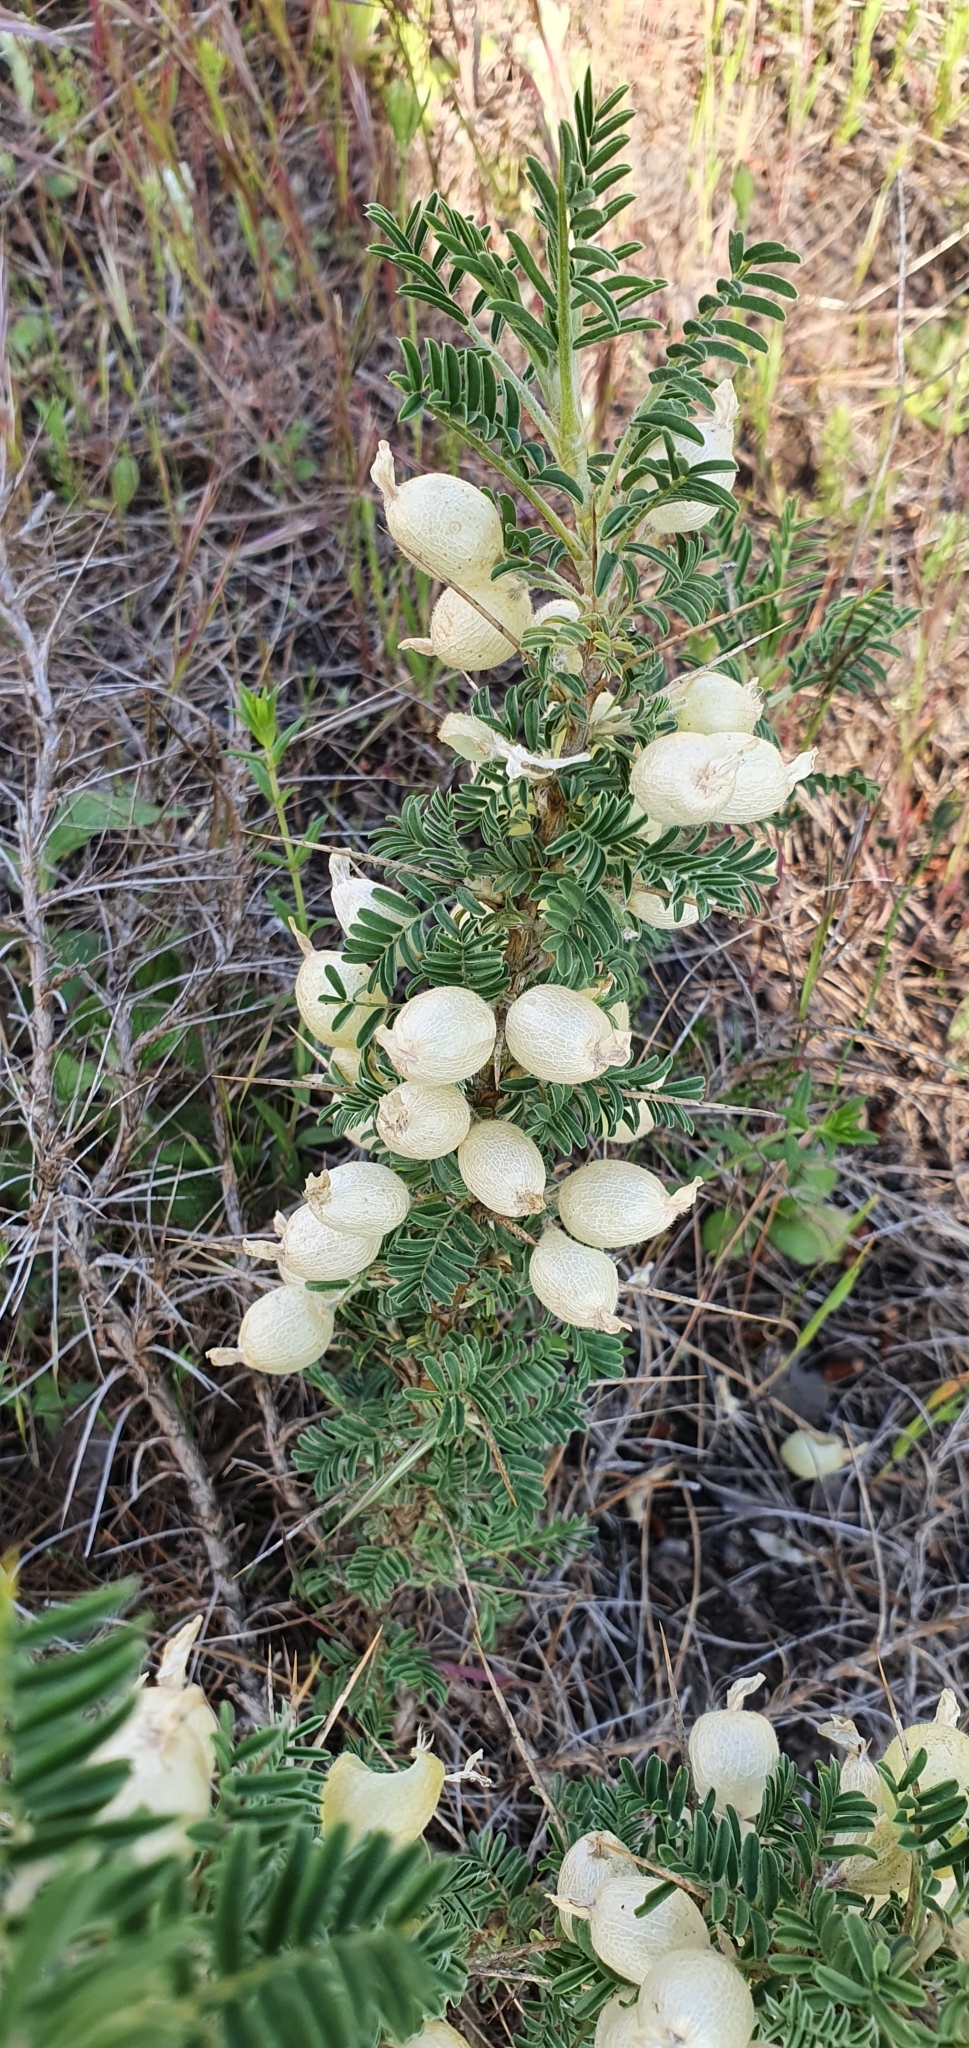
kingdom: Plantae
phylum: Tracheophyta
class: Magnoliopsida
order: Fabales
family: Fabaceae
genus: Astragalus
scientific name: Astragalus armatus
